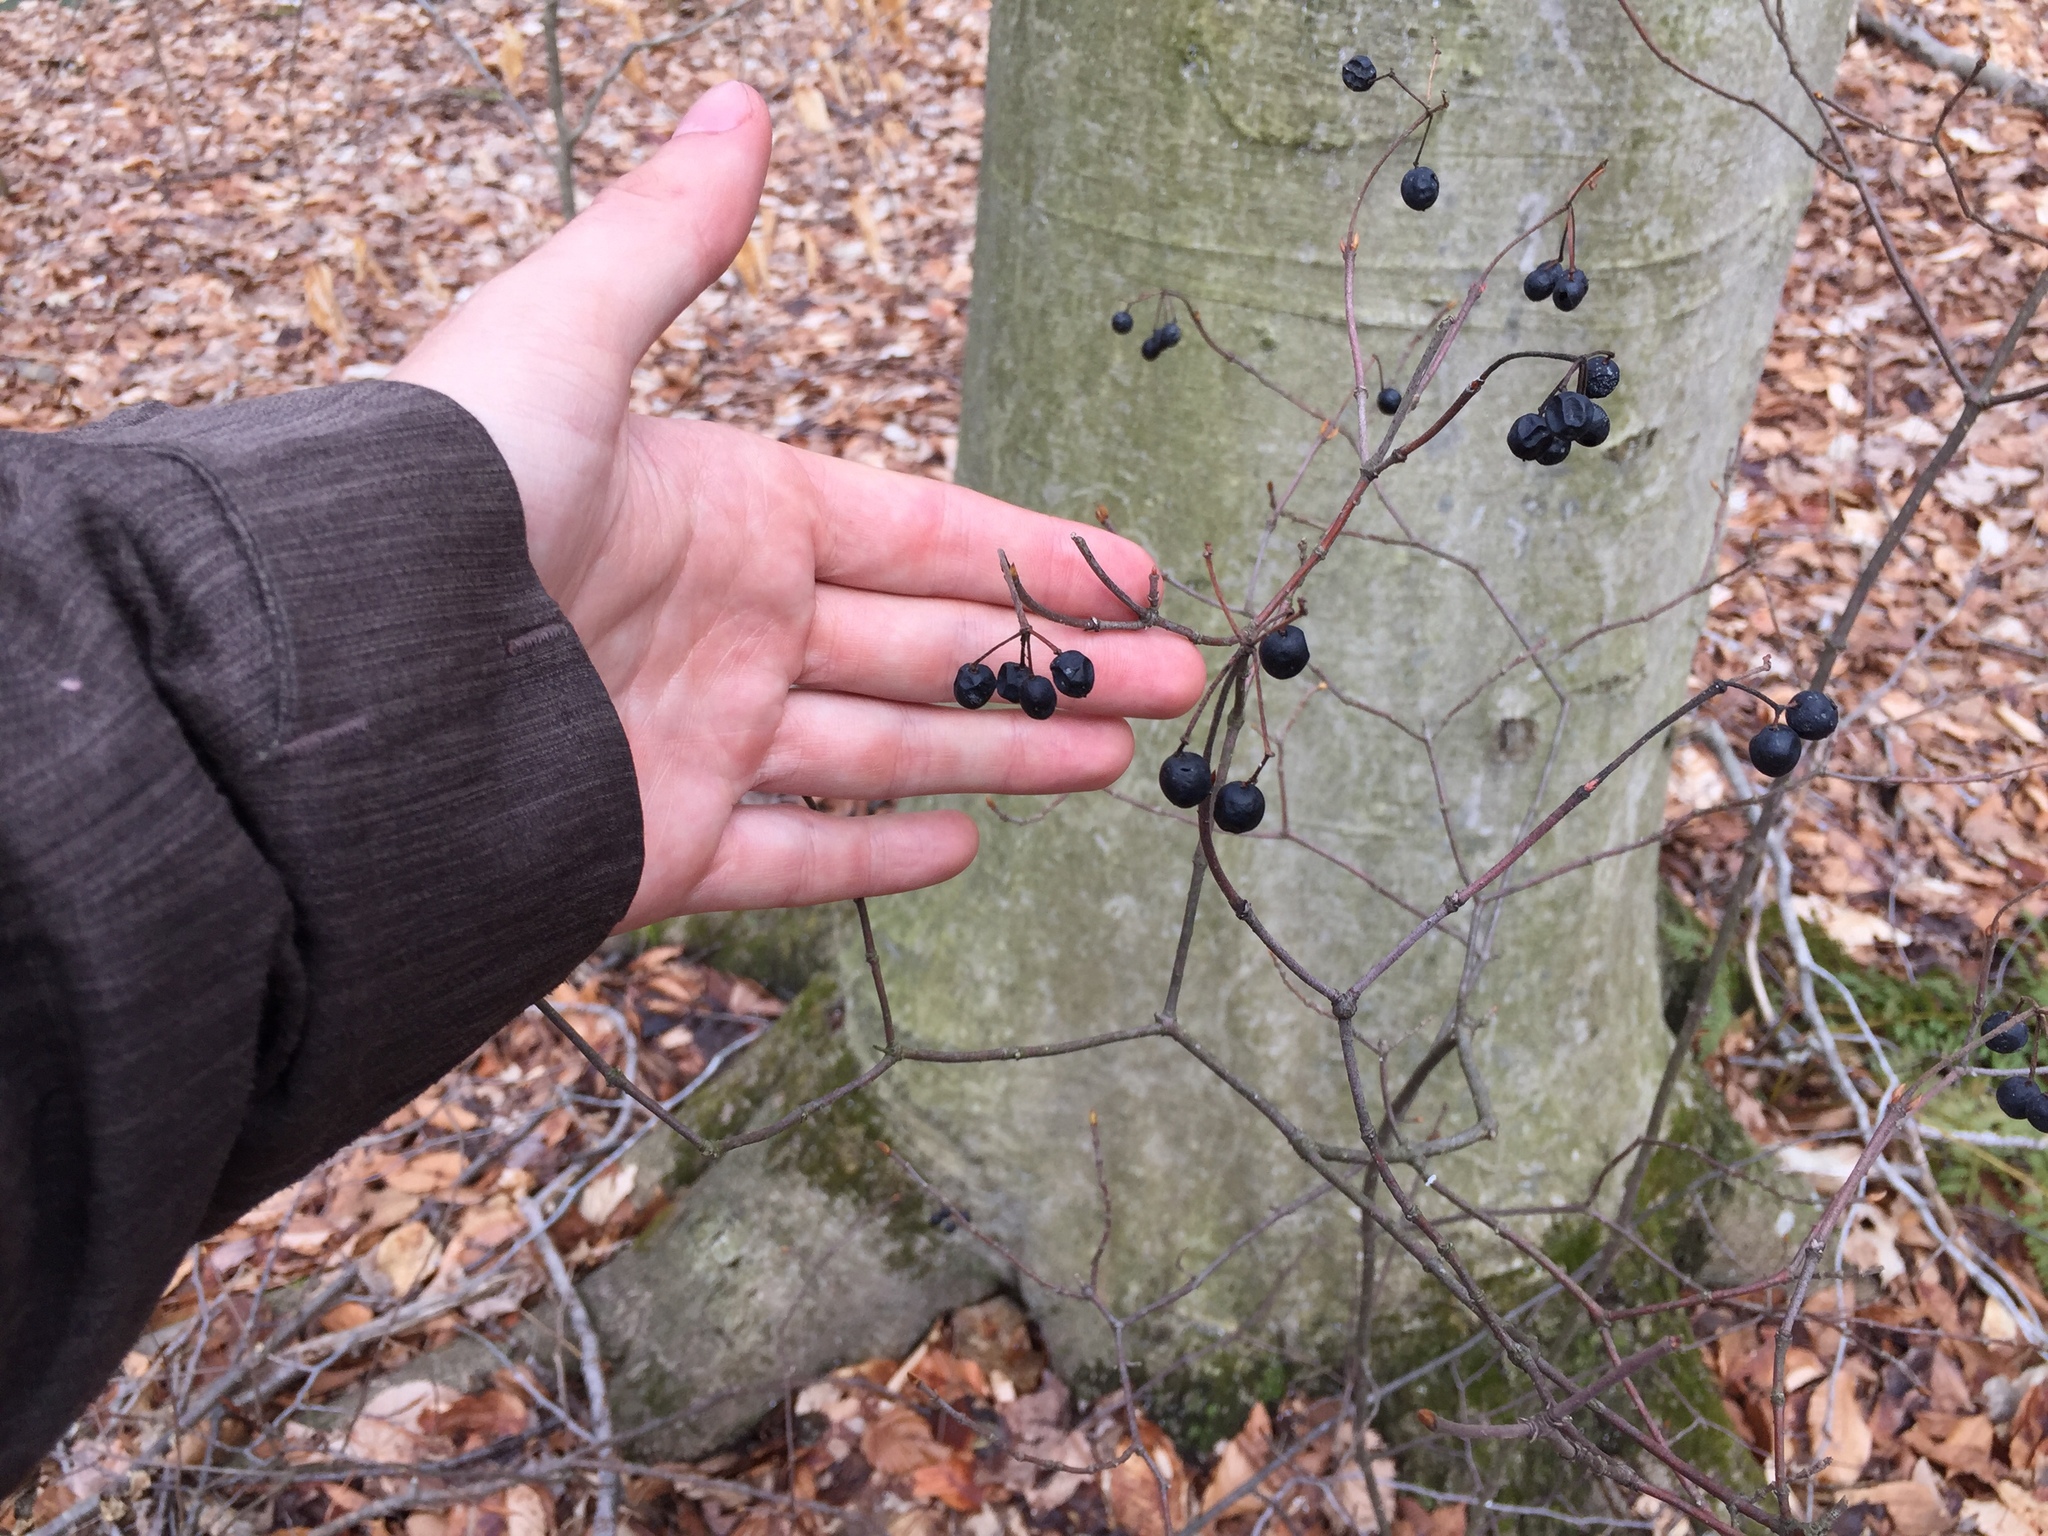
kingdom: Plantae
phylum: Tracheophyta
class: Magnoliopsida
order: Dipsacales
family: Viburnaceae
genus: Viburnum
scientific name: Viburnum acerifolium
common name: Dockmackie
